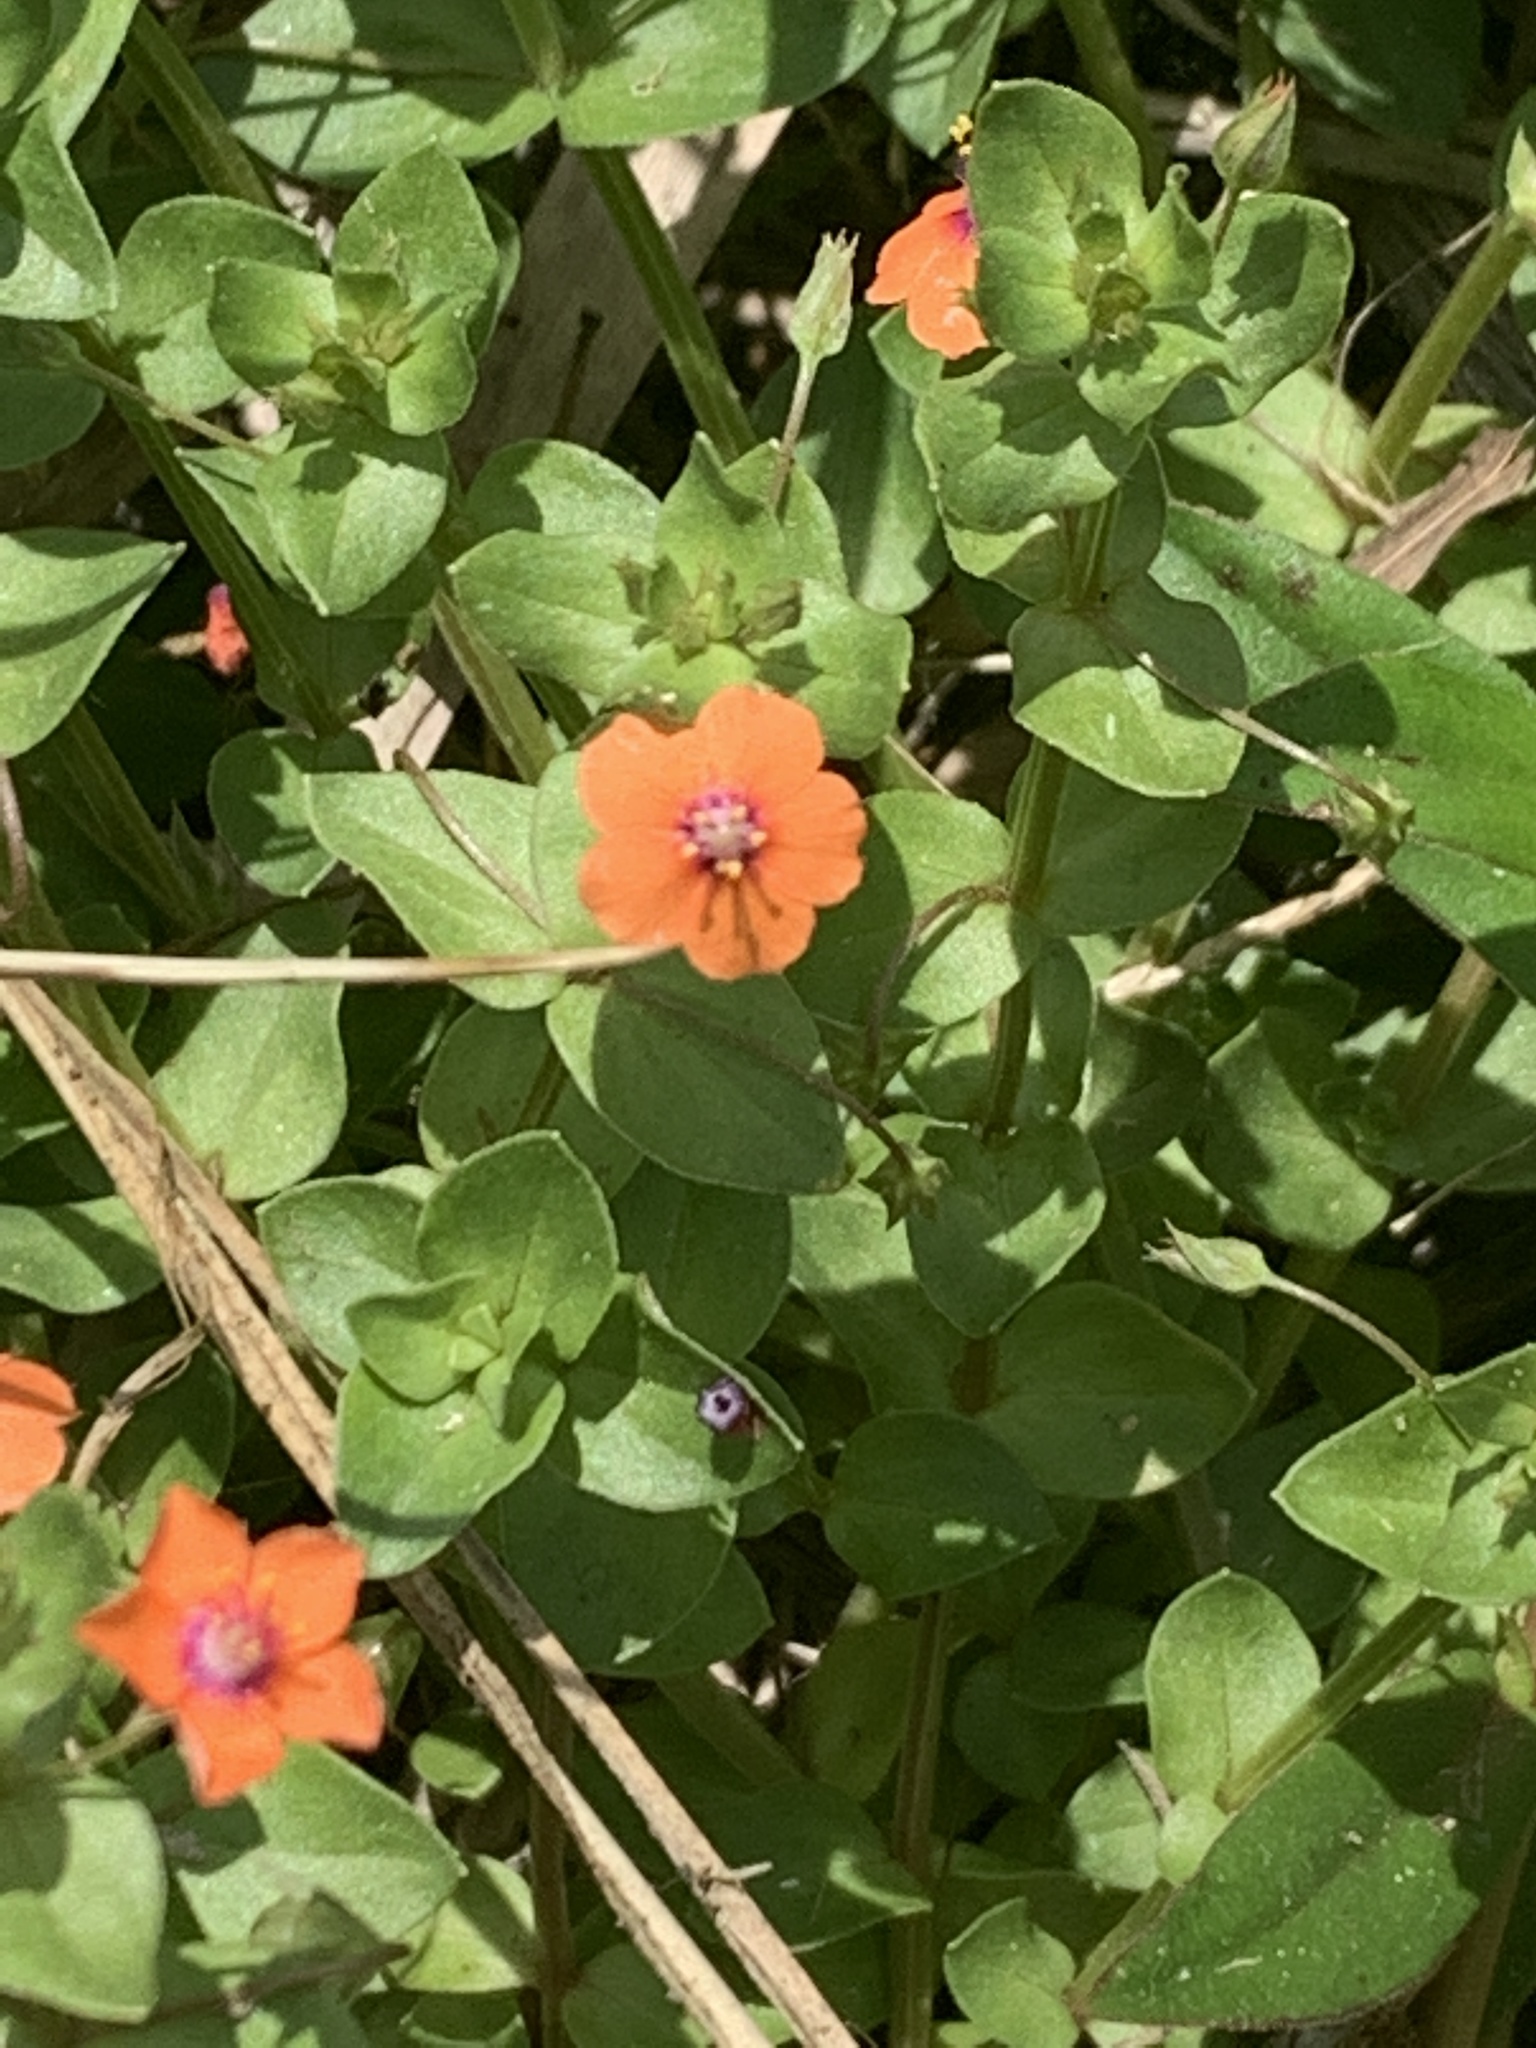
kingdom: Plantae
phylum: Tracheophyta
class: Magnoliopsida
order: Ericales
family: Primulaceae
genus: Lysimachia
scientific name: Lysimachia arvensis
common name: Scarlet pimpernel
